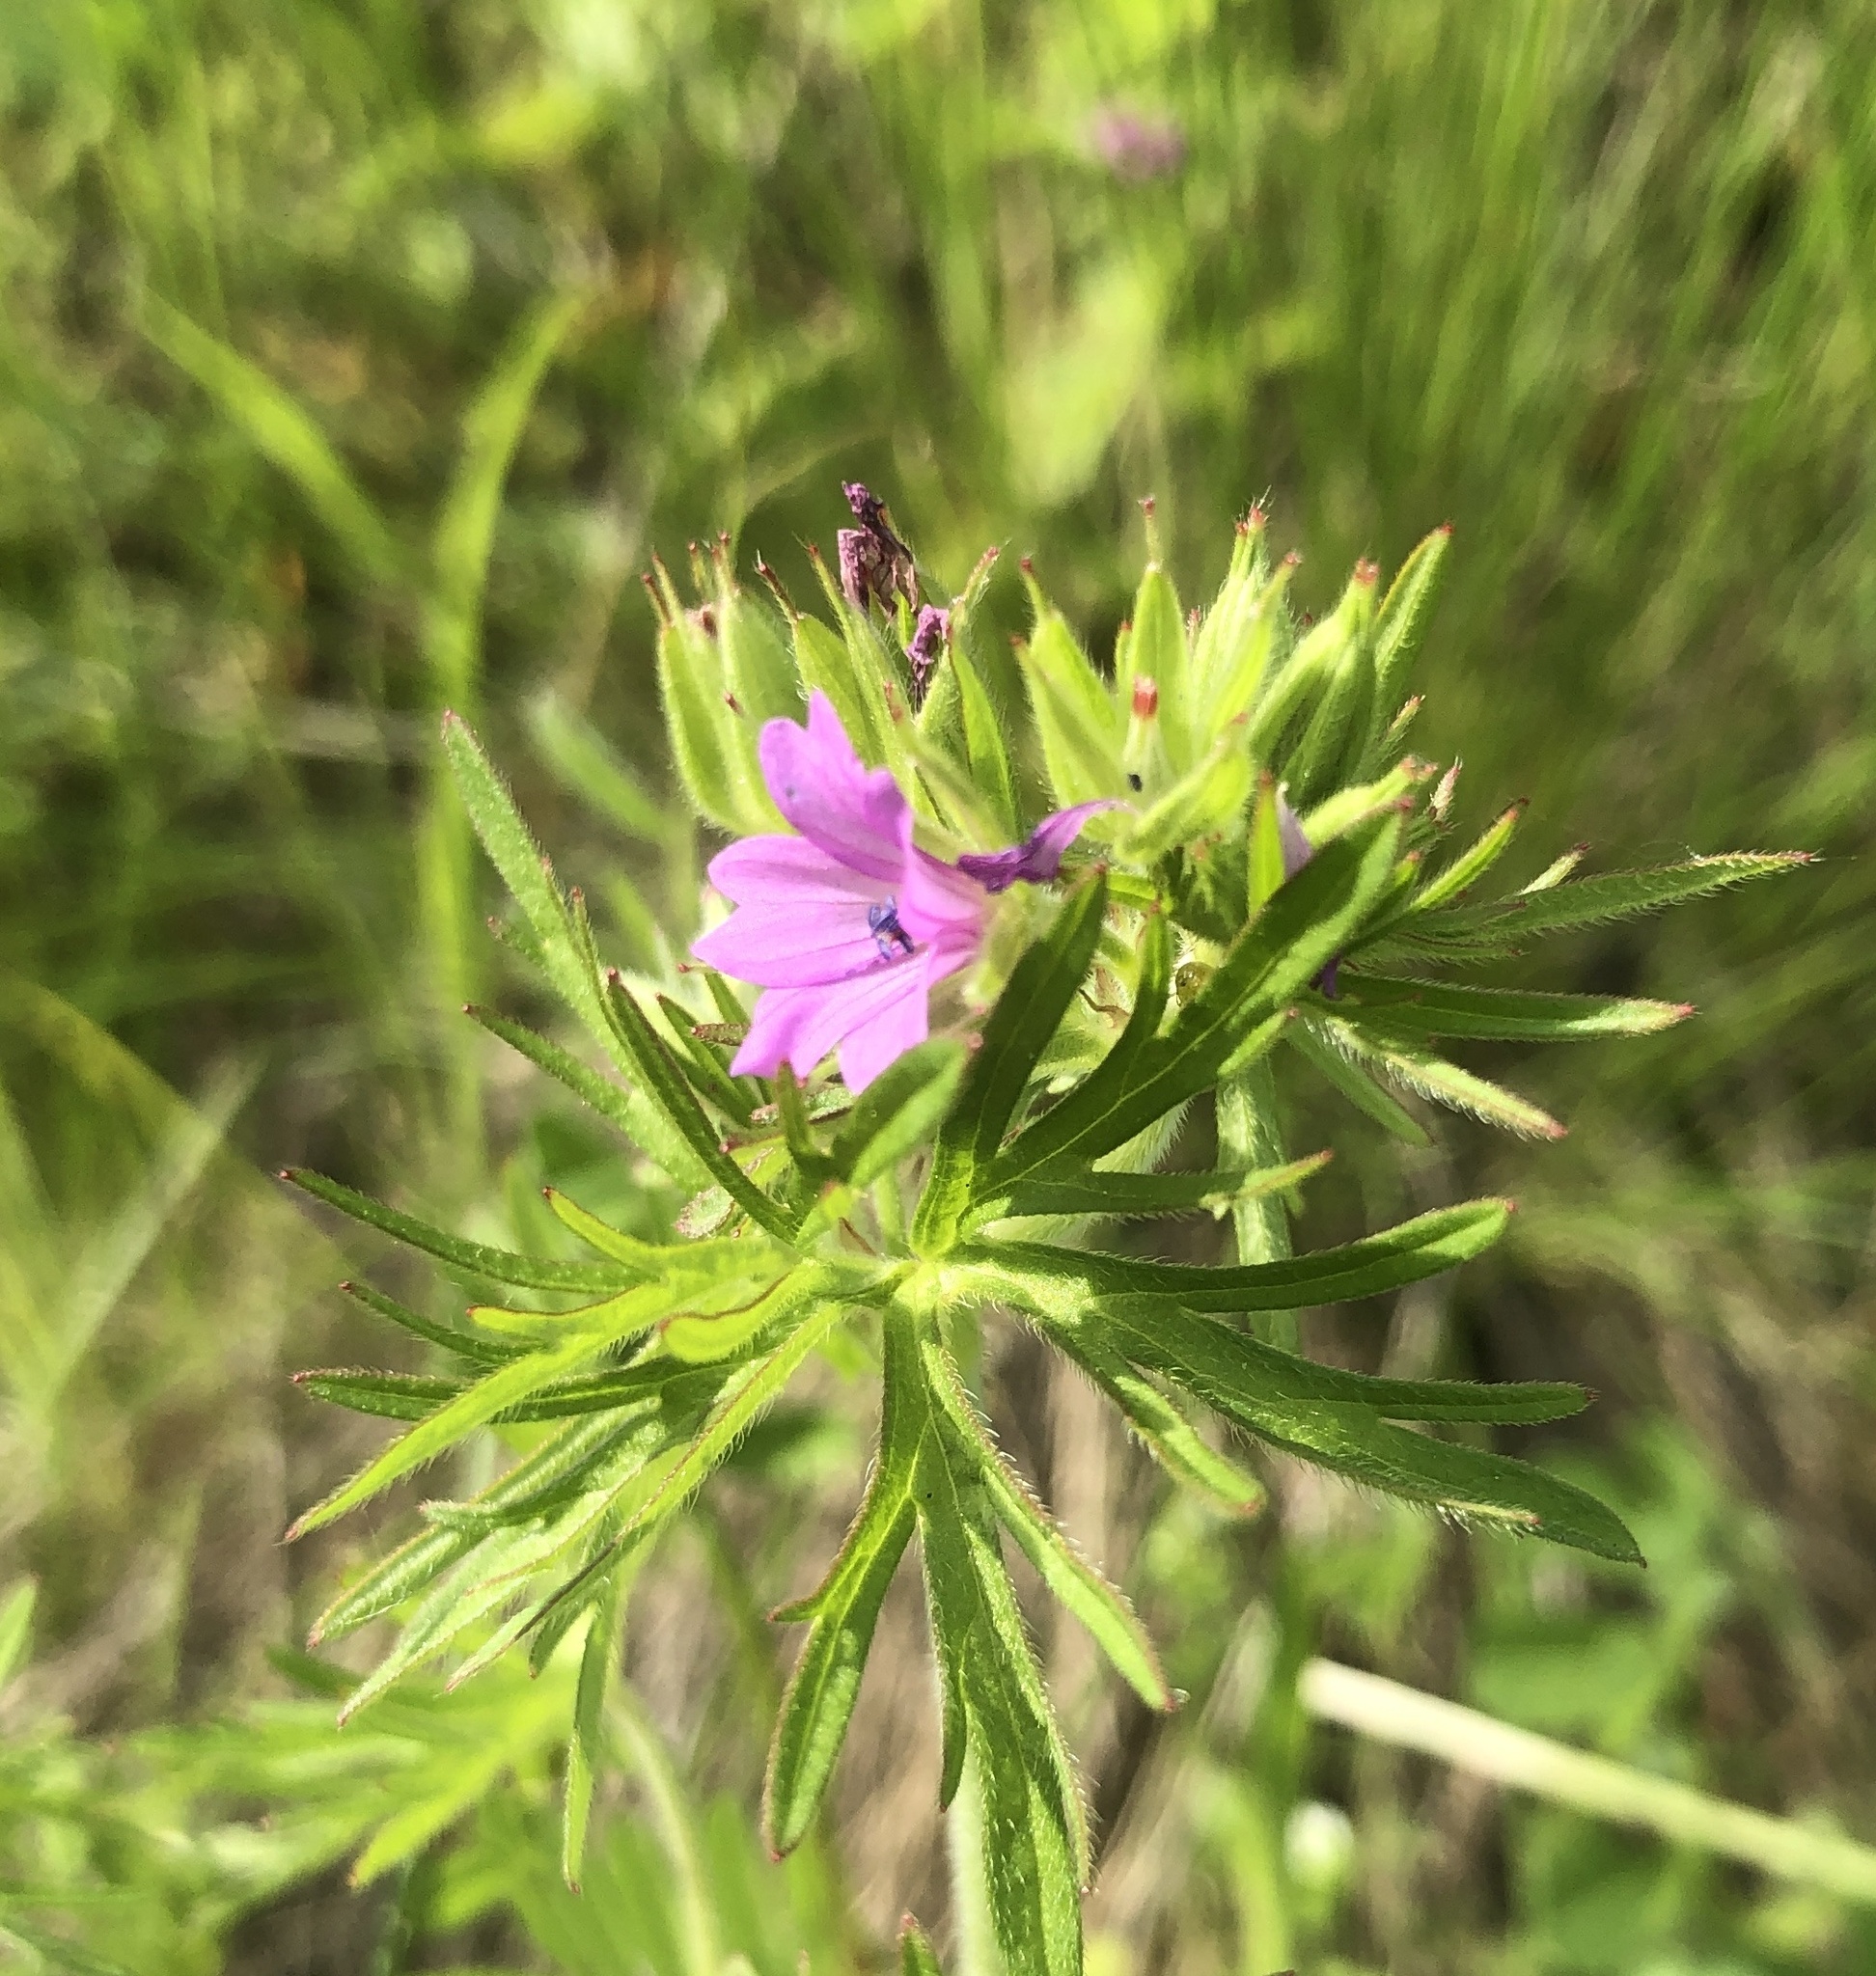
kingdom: Plantae
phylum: Tracheophyta
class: Magnoliopsida
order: Geraniales
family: Geraniaceae
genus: Geranium
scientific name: Geranium dissectum
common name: Cut-leaved crane's-bill
